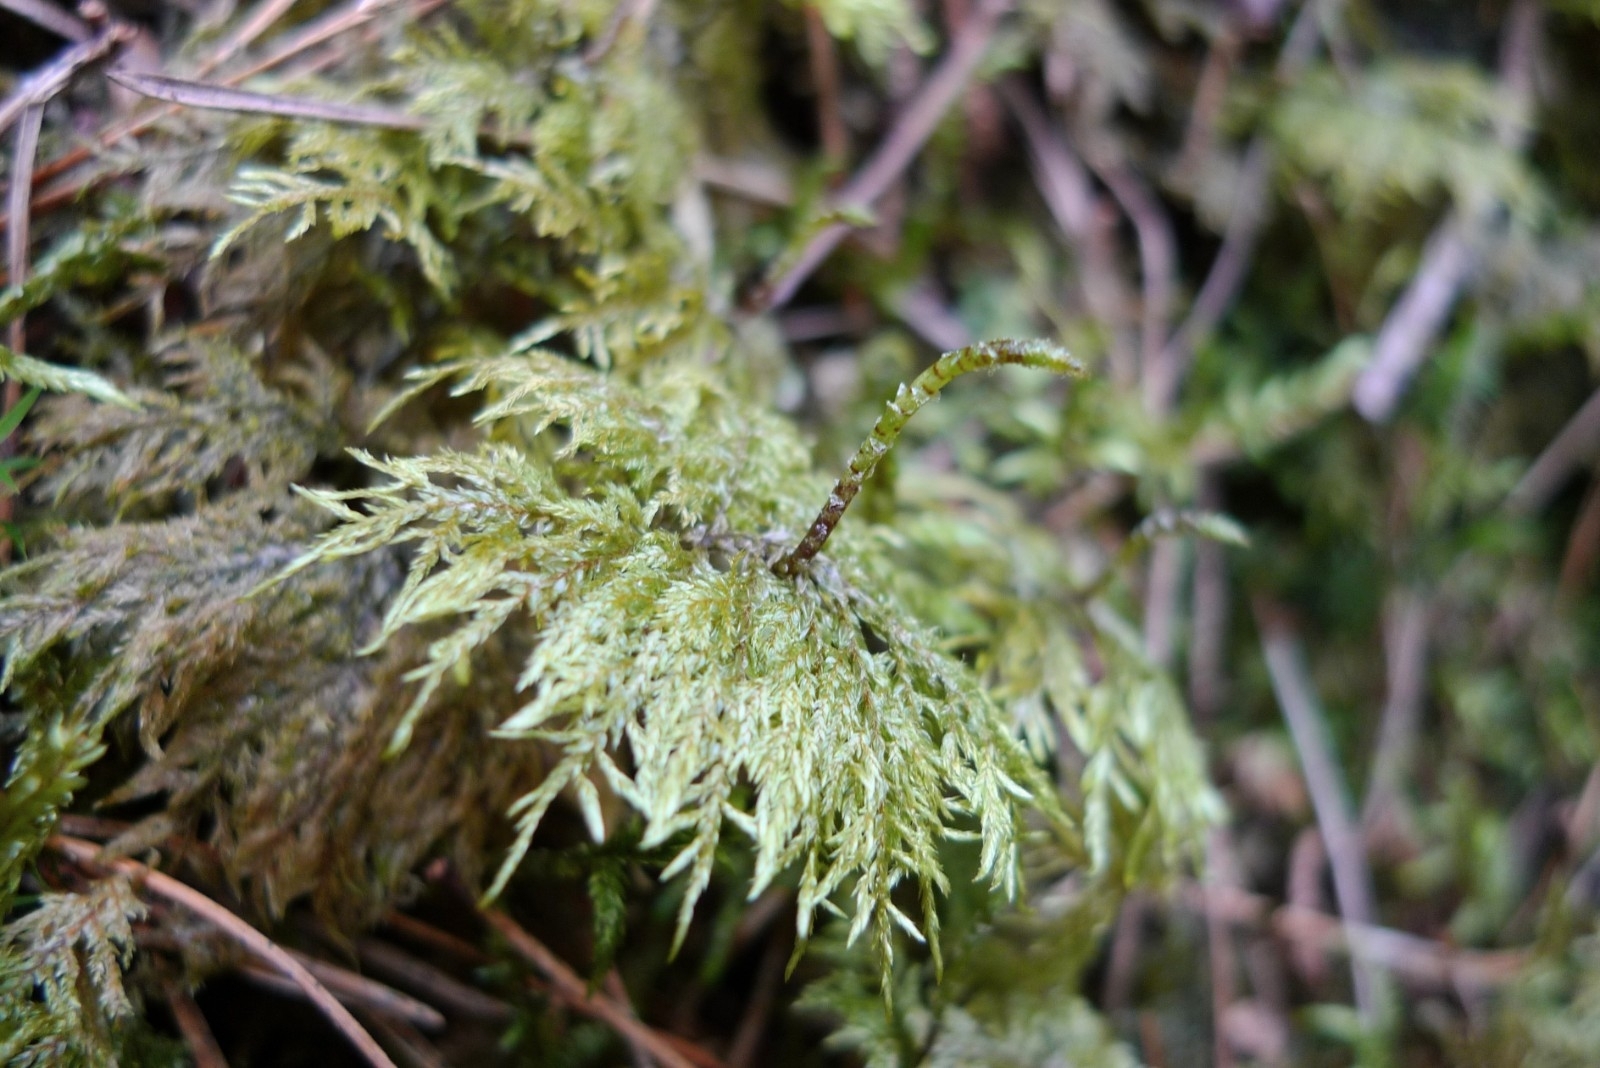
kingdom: Plantae
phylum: Bryophyta
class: Bryopsida
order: Hypnales
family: Hylocomiaceae
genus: Hylocomium
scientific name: Hylocomium splendens
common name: Stairstep moss
